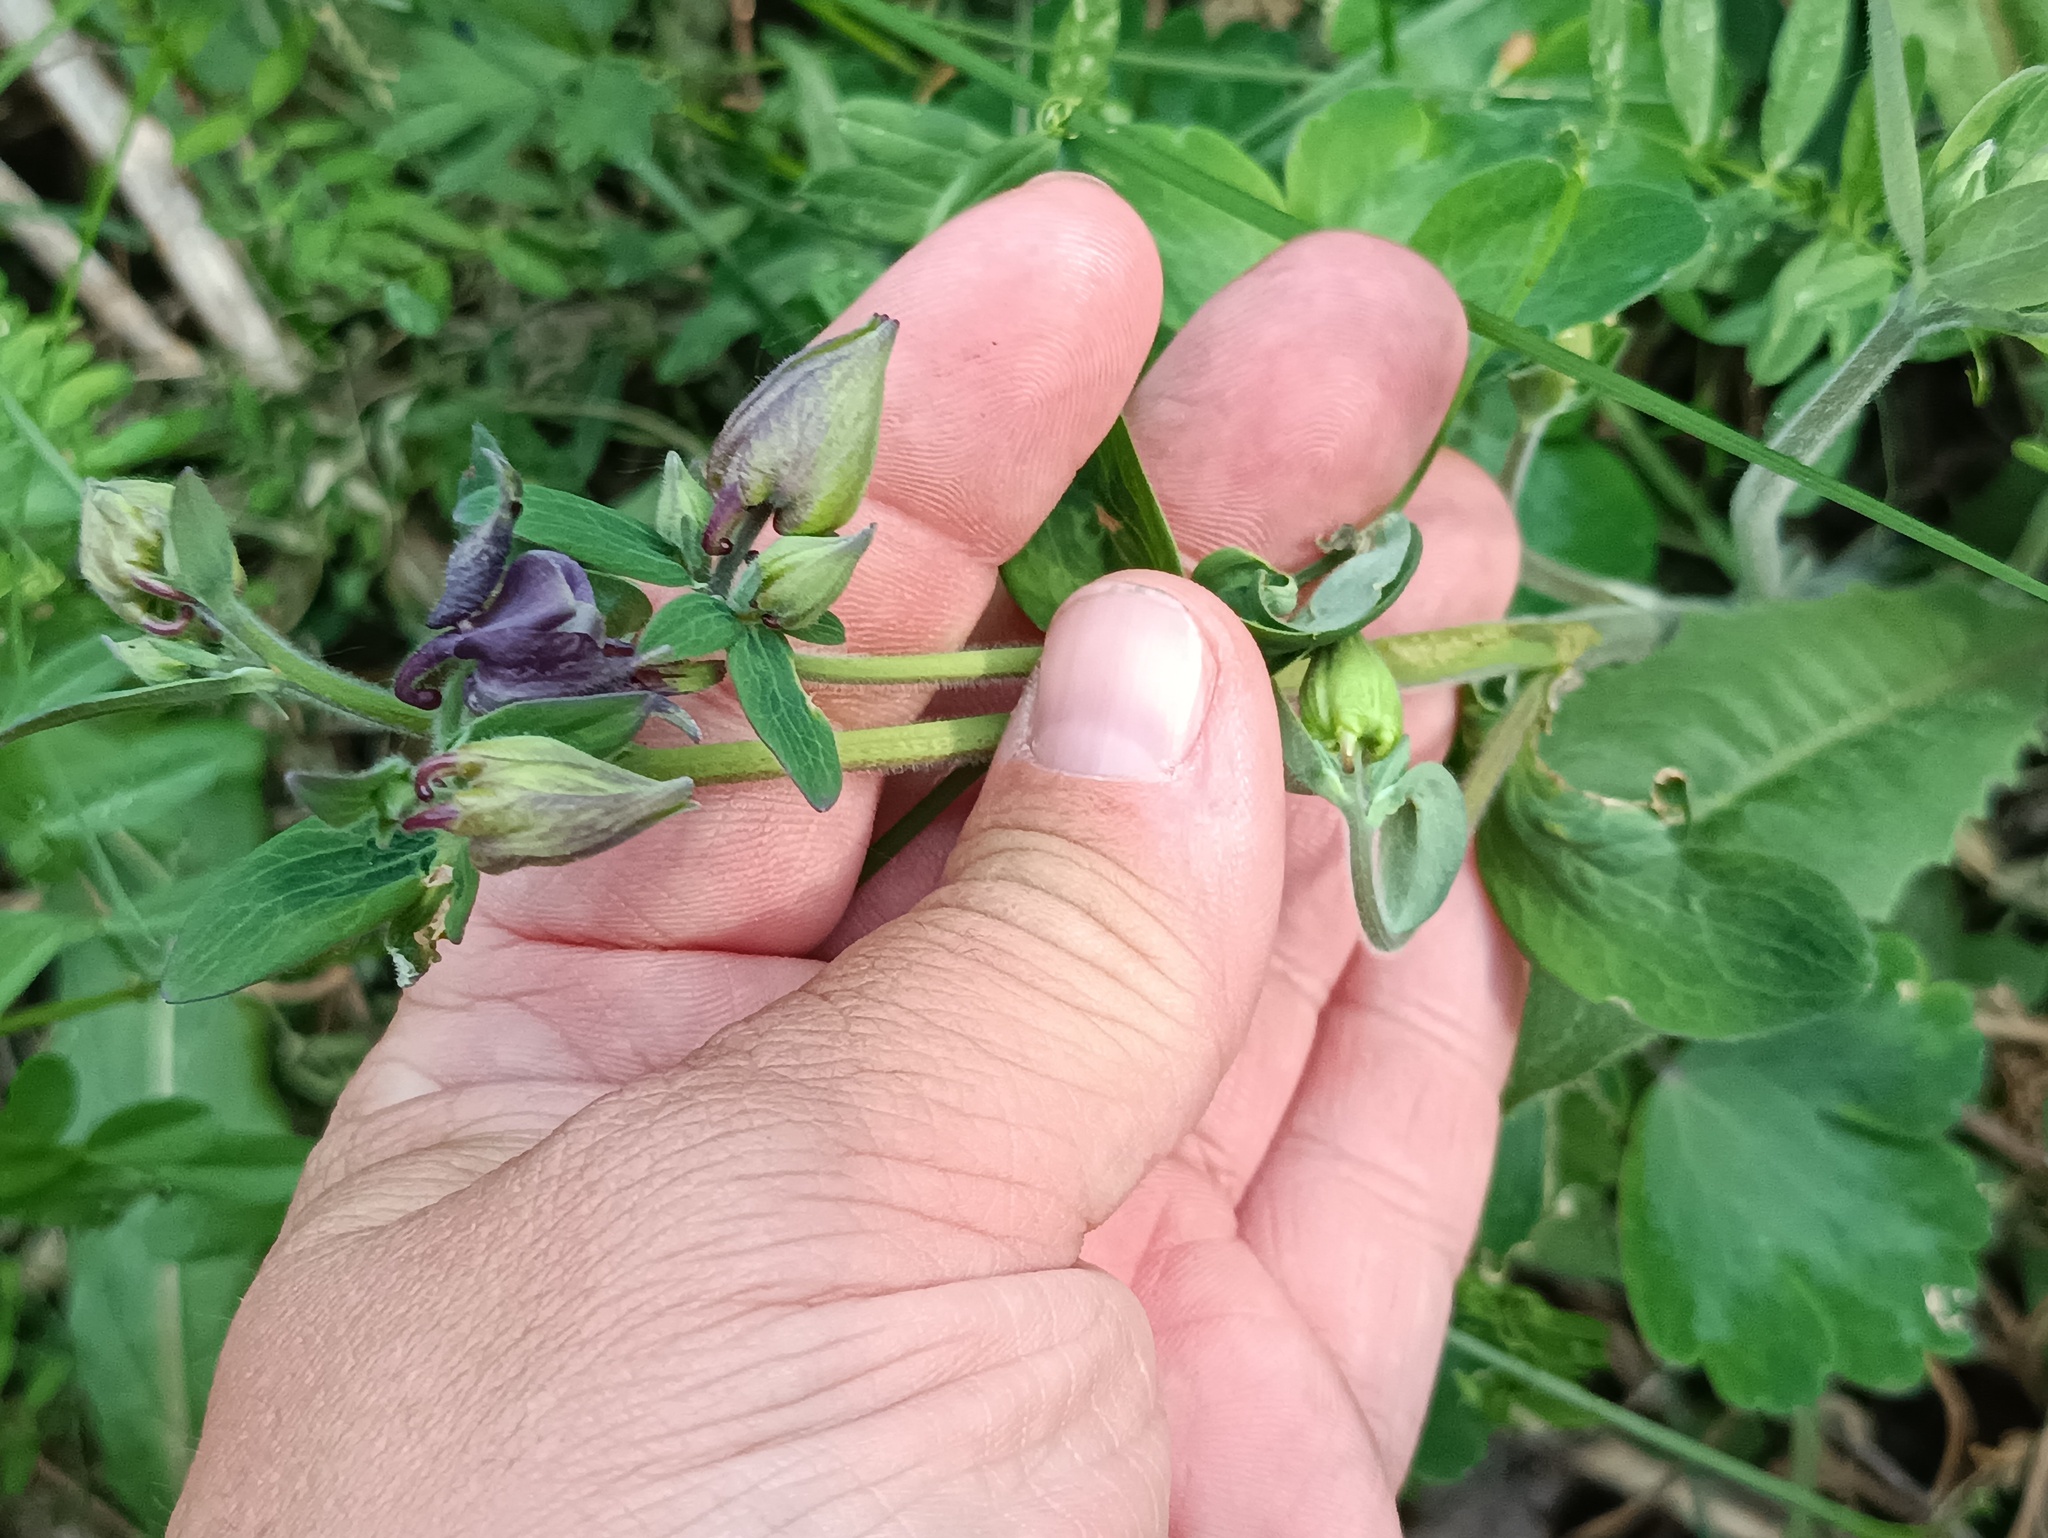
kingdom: Plantae
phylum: Tracheophyta
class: Magnoliopsida
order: Ranunculales
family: Ranunculaceae
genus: Aquilegia
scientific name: Aquilegia vulgaris
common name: Columbine
